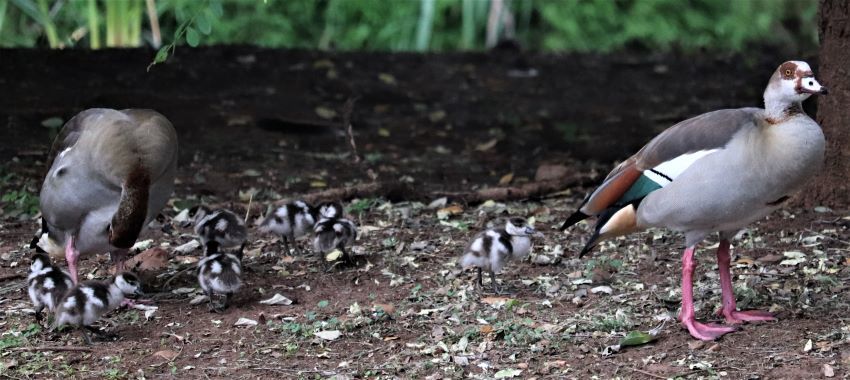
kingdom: Animalia
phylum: Chordata
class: Aves
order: Anseriformes
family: Anatidae
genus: Alopochen
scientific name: Alopochen aegyptiaca
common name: Egyptian goose
